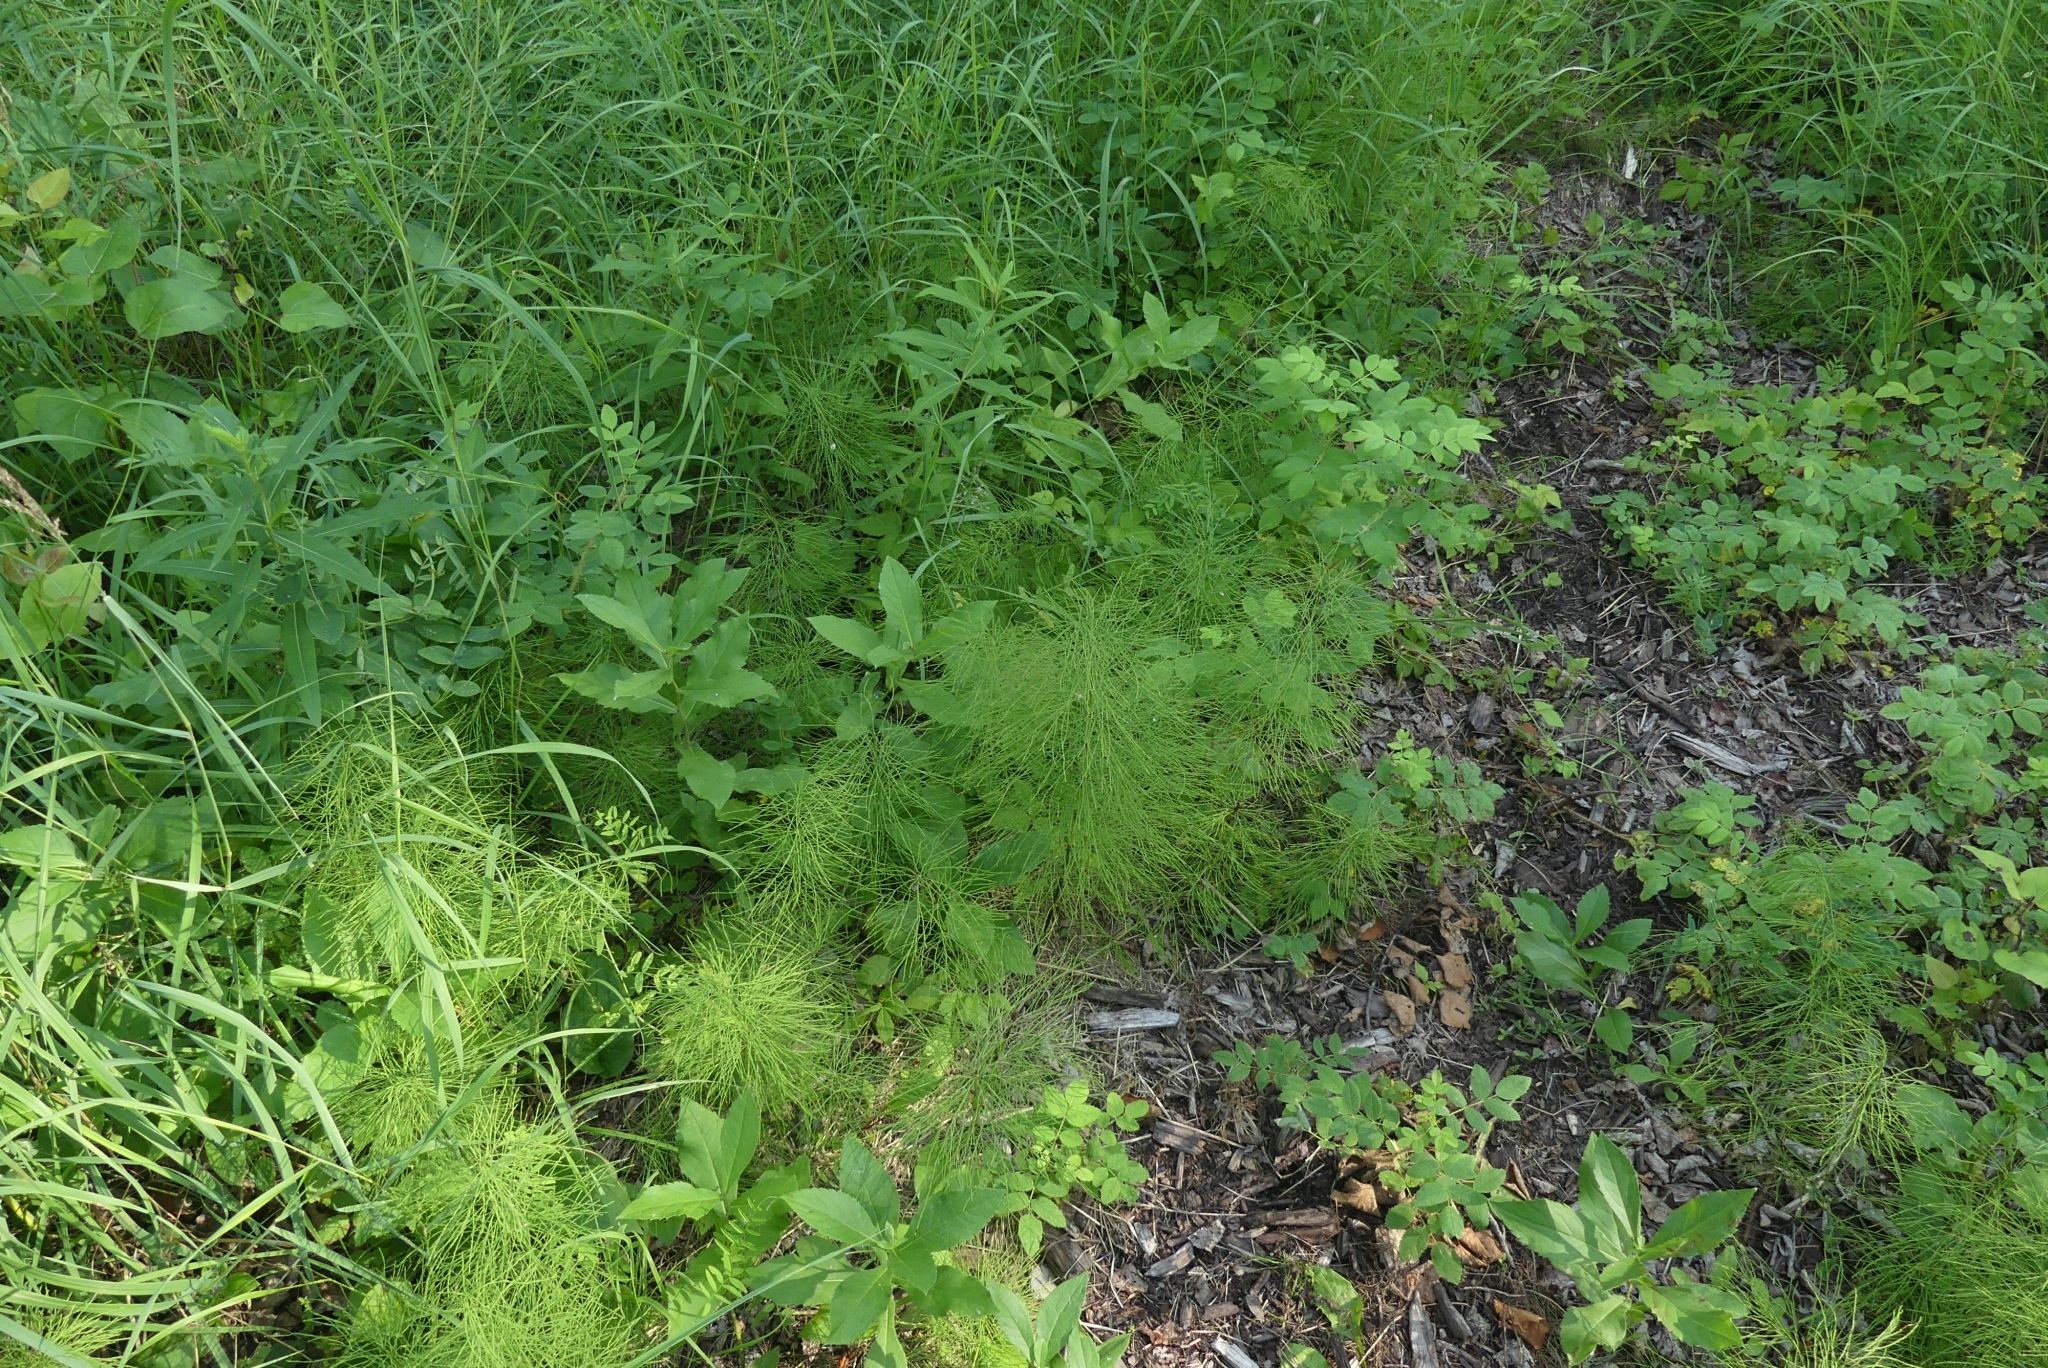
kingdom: Plantae
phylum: Tracheophyta
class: Polypodiopsida
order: Equisetales
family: Equisetaceae
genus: Equisetum
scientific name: Equisetum sylvaticum
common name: Wood horsetail
